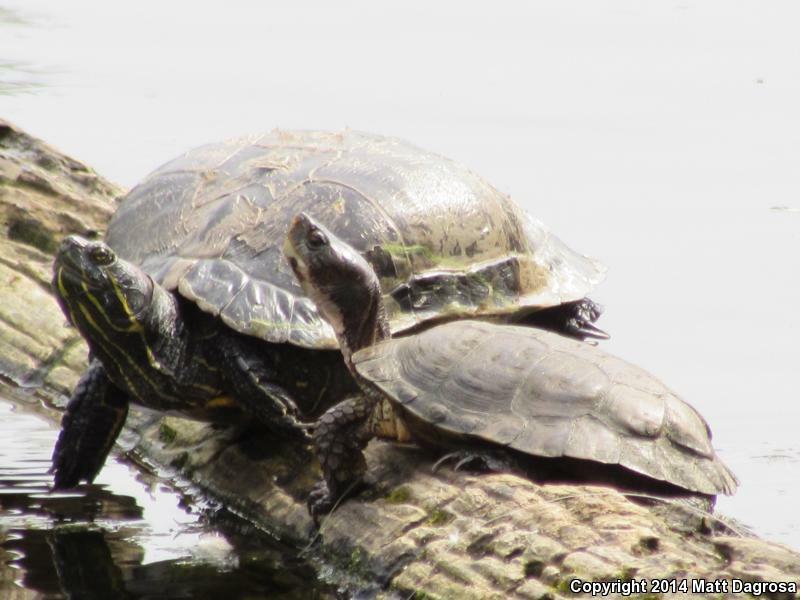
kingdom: Animalia
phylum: Chordata
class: Testudines
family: Emydidae
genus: Trachemys
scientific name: Trachemys scripta
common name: Slider
